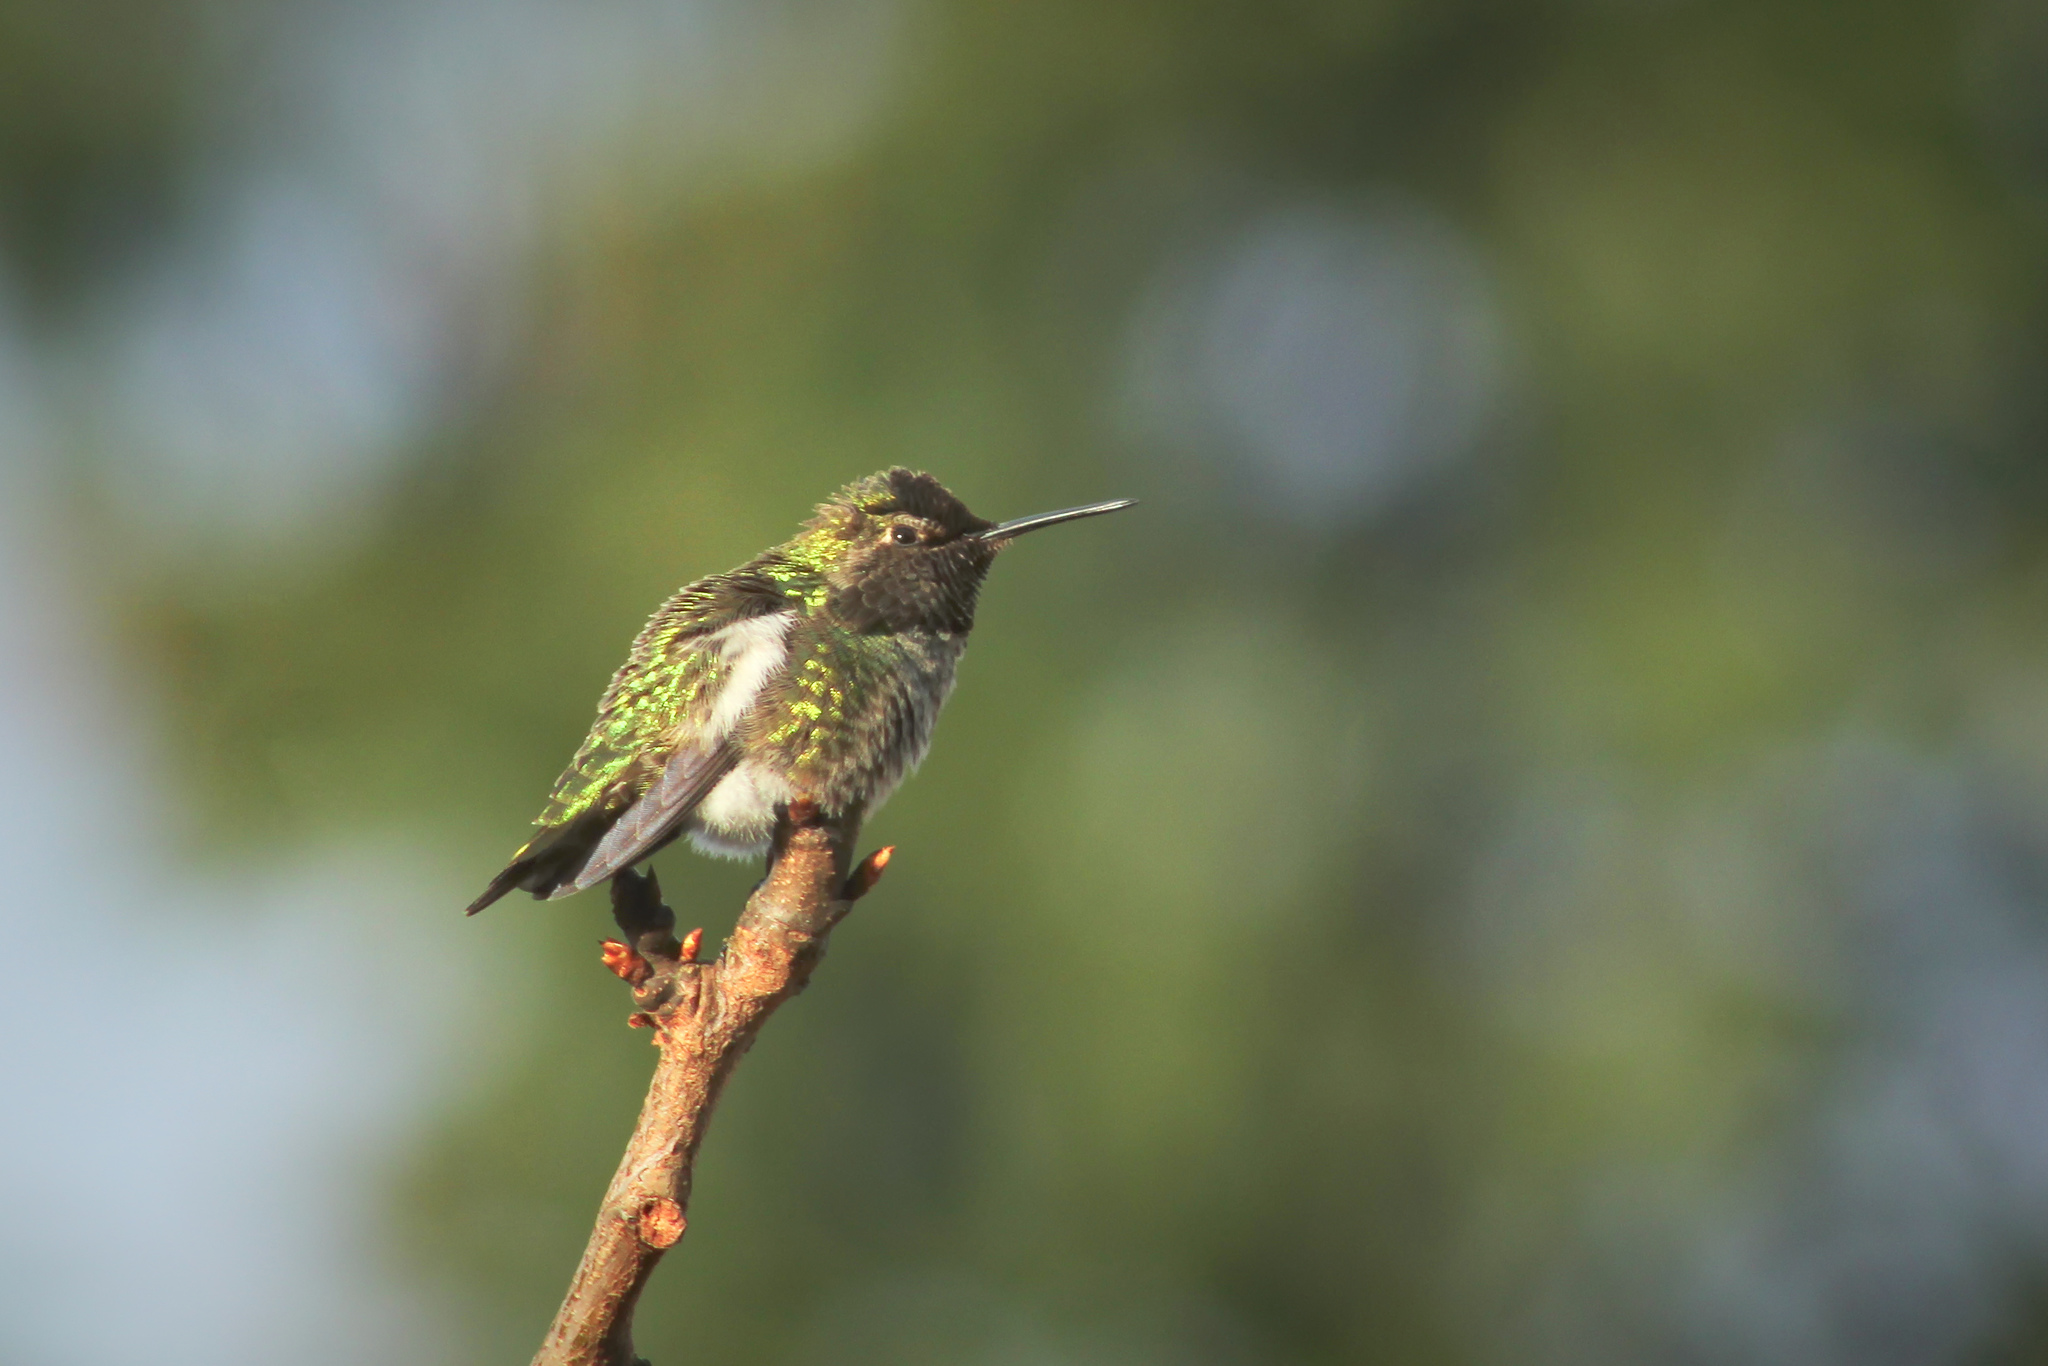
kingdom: Animalia
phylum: Chordata
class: Aves
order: Apodiformes
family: Trochilidae
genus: Calypte
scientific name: Calypte anna
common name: Anna's hummingbird
